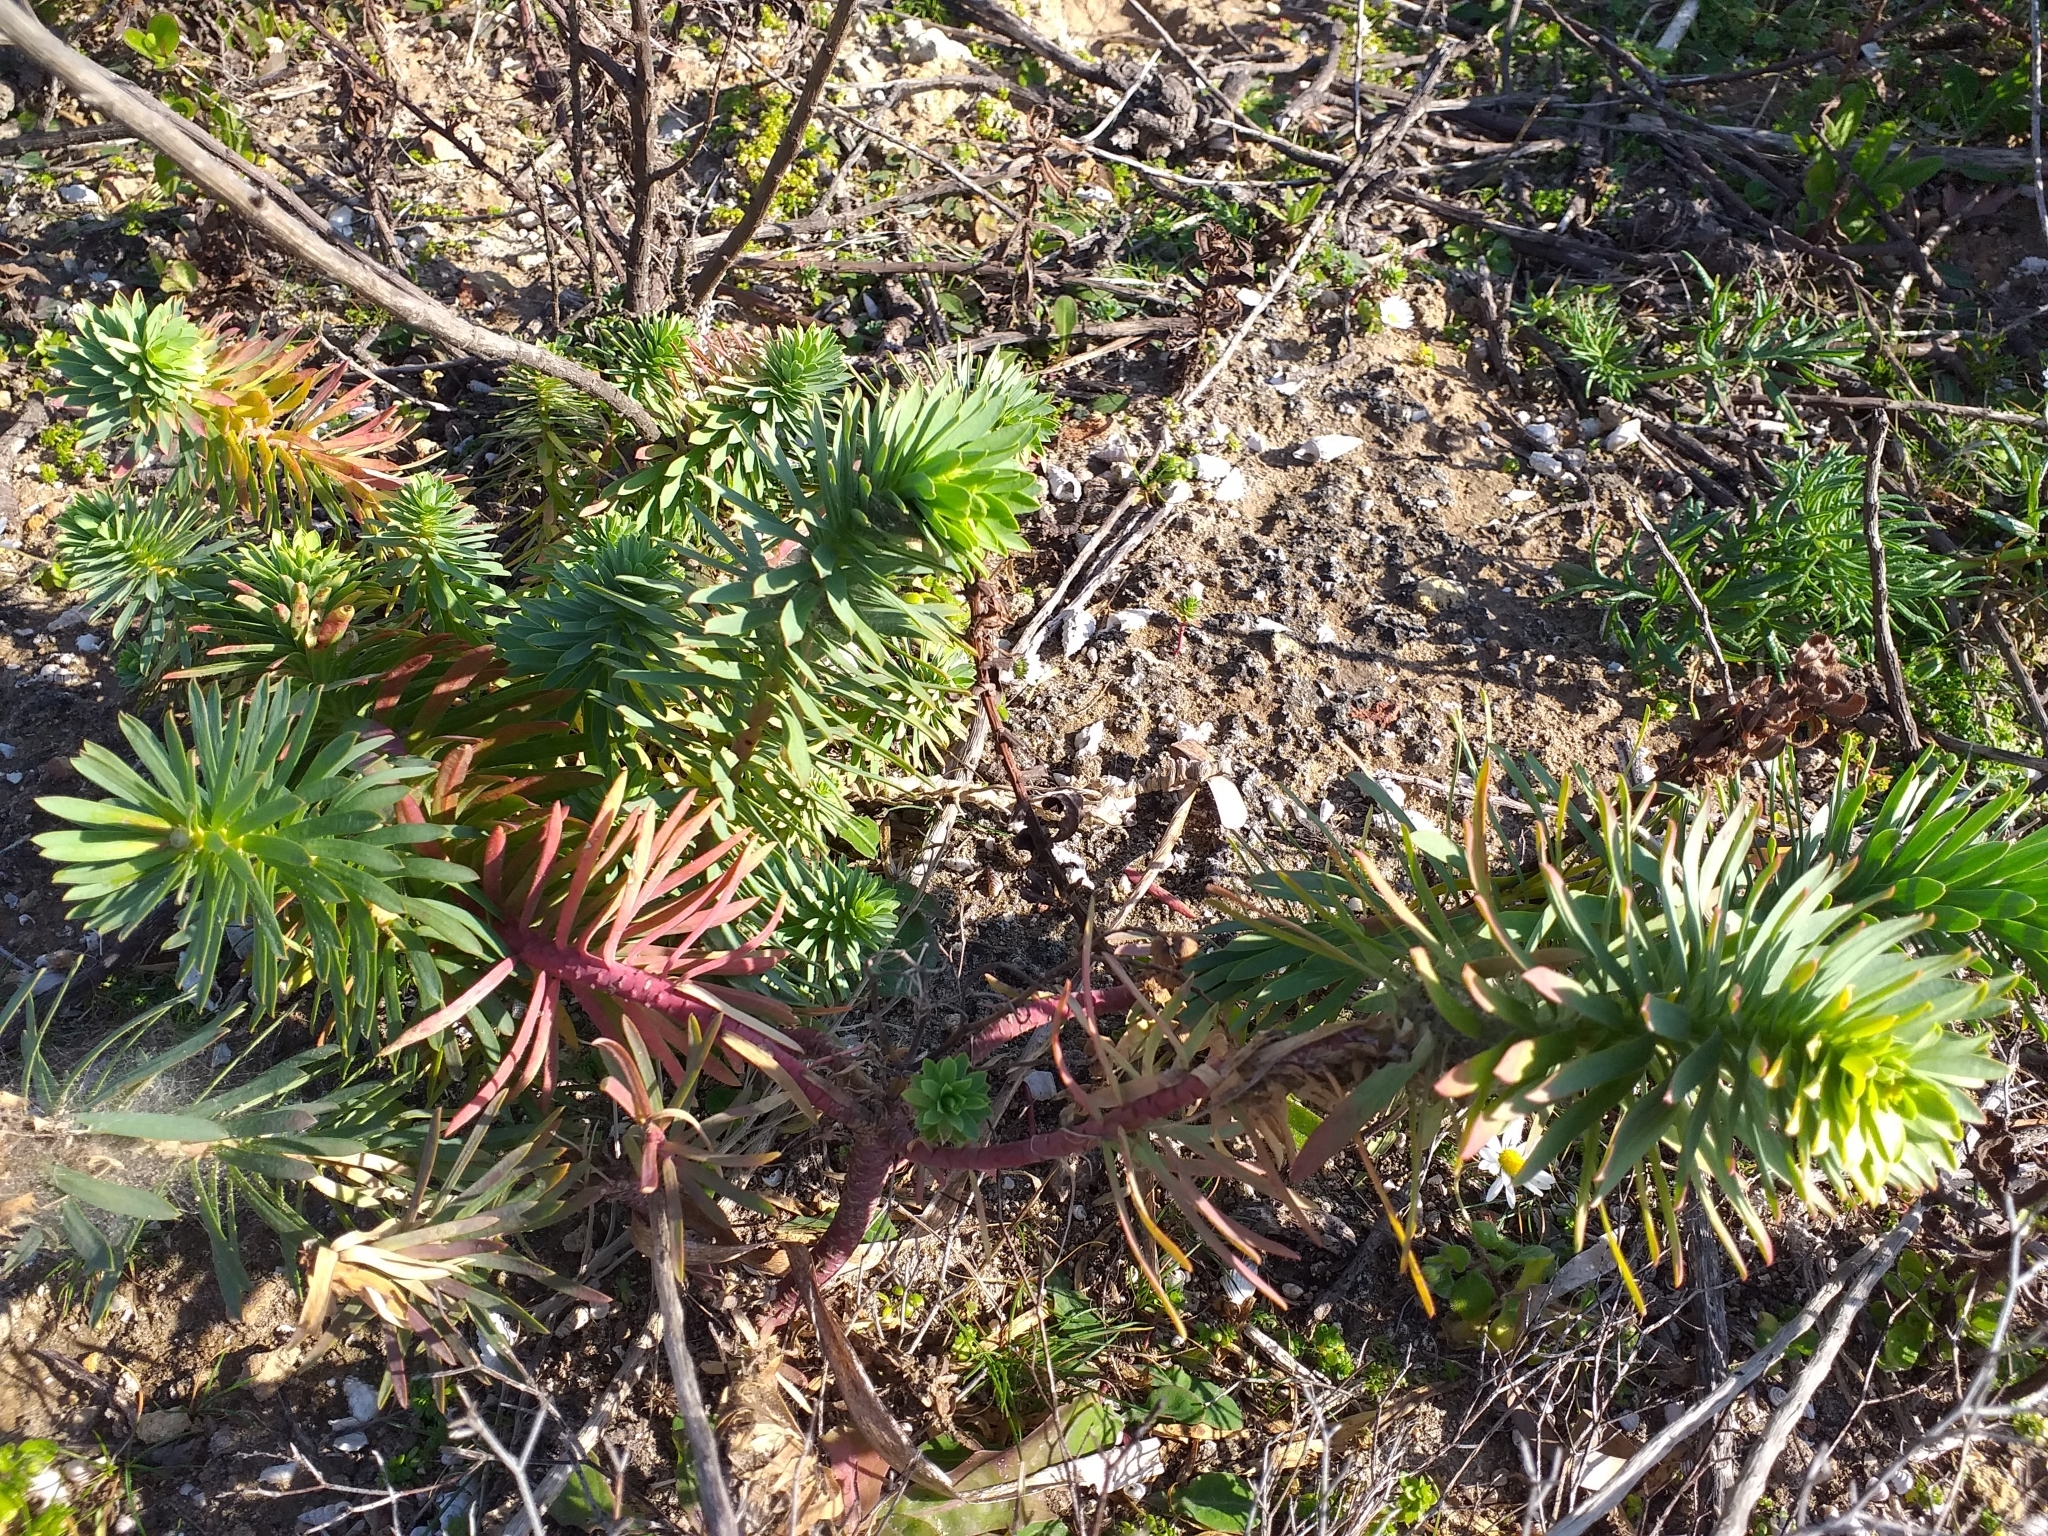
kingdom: Plantae
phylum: Tracheophyta
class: Magnoliopsida
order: Malpighiales
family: Euphorbiaceae
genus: Euphorbia
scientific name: Euphorbia segetalis
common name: Corn spurge
